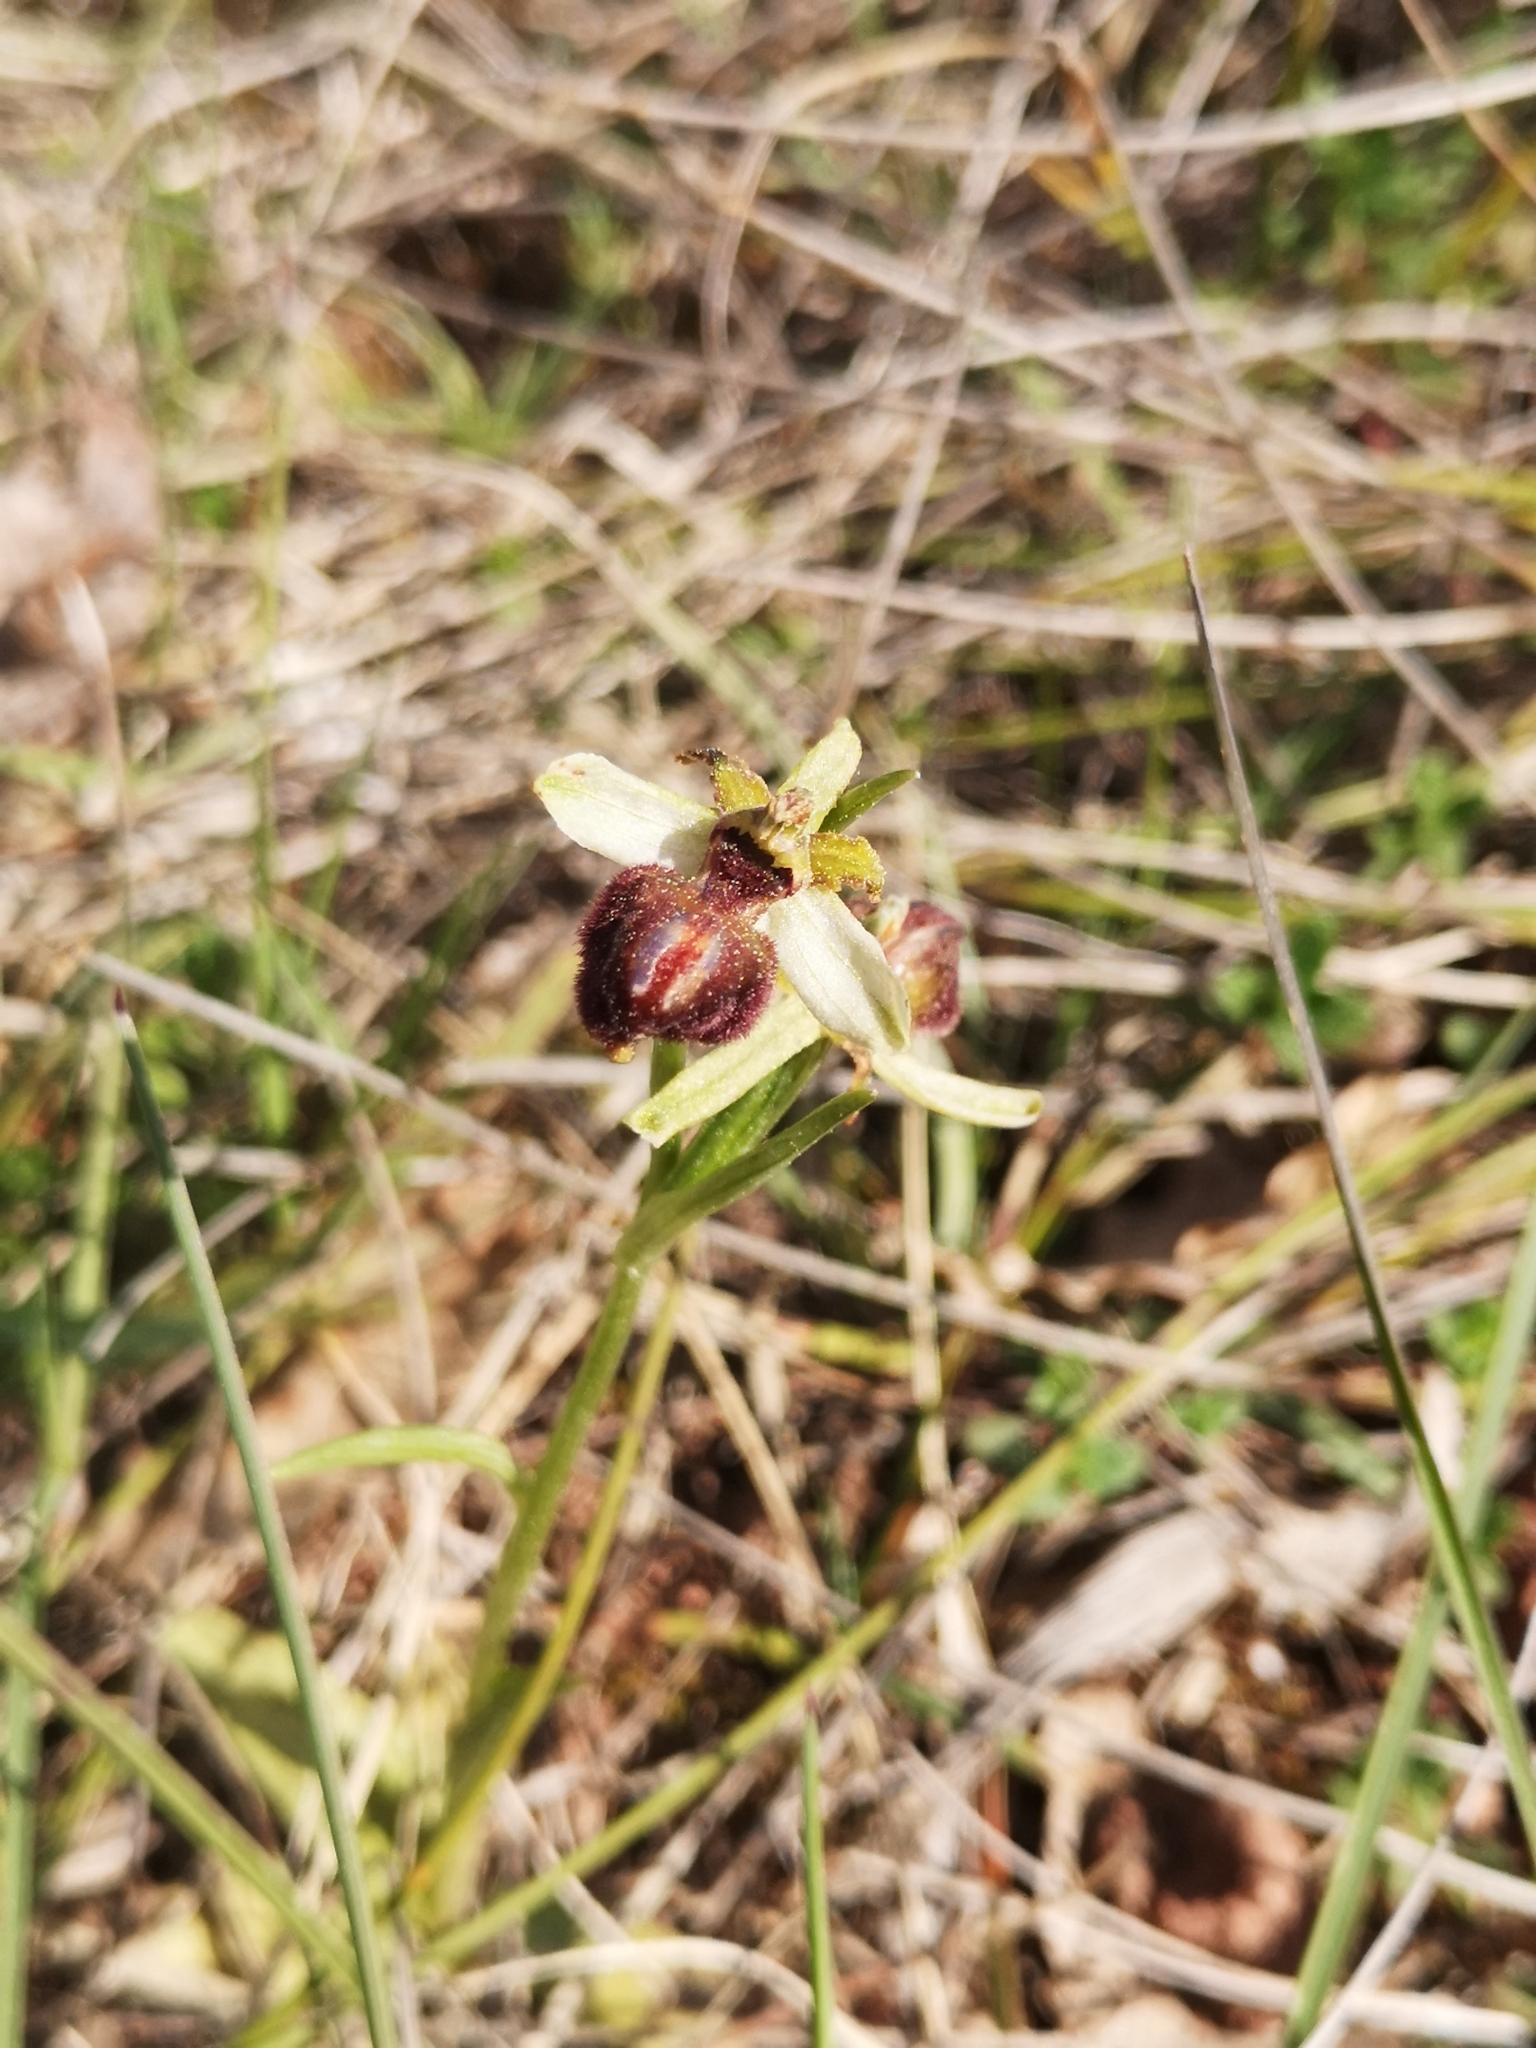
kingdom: Plantae
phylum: Tracheophyta
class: Liliopsida
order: Asparagales
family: Orchidaceae
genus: Ophrys
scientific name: Ophrys sphegodes
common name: Early spider-orchid
